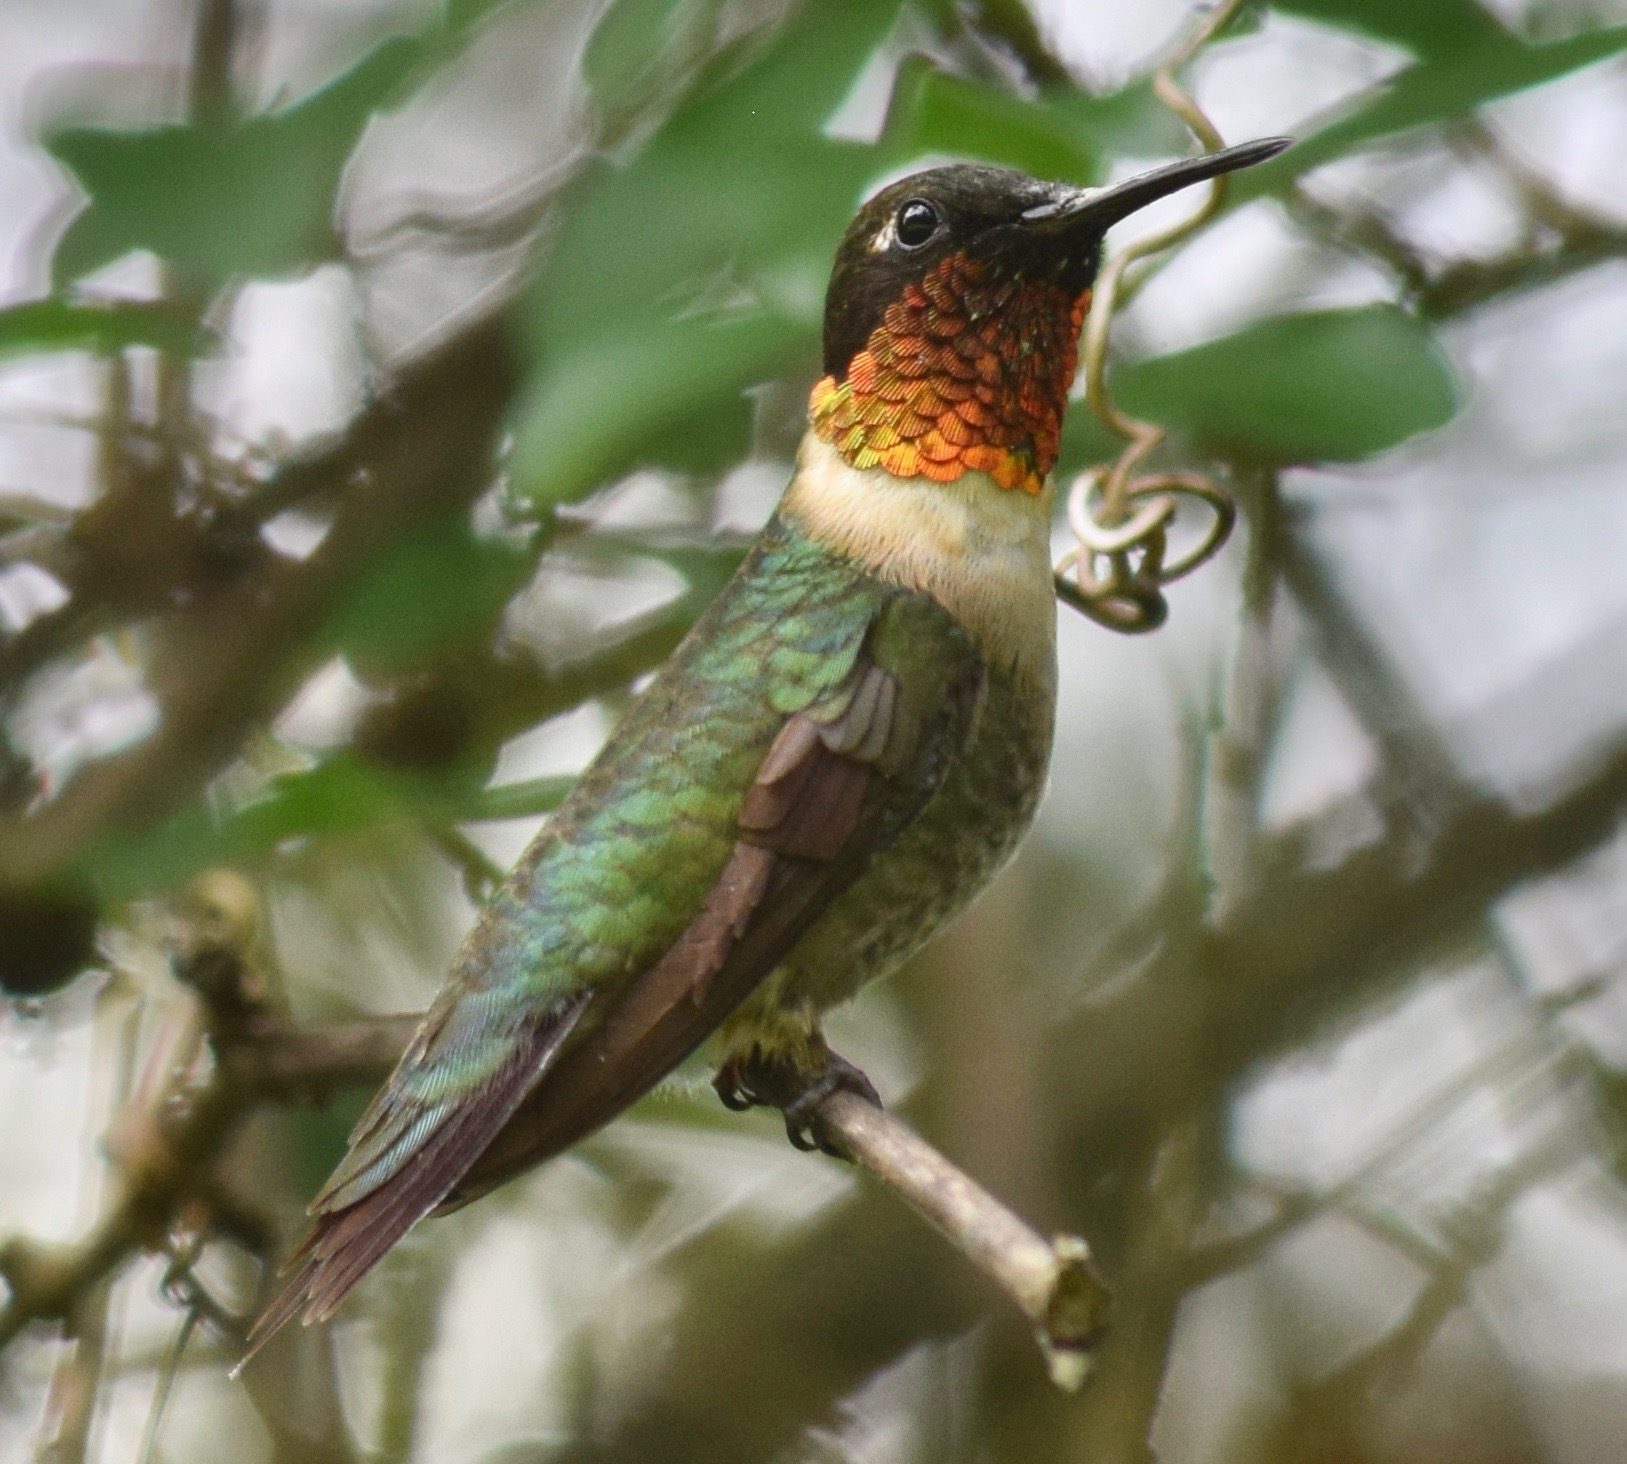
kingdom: Animalia
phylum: Chordata
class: Aves
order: Apodiformes
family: Trochilidae
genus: Archilochus
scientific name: Archilochus colubris
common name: Ruby-throated hummingbird
